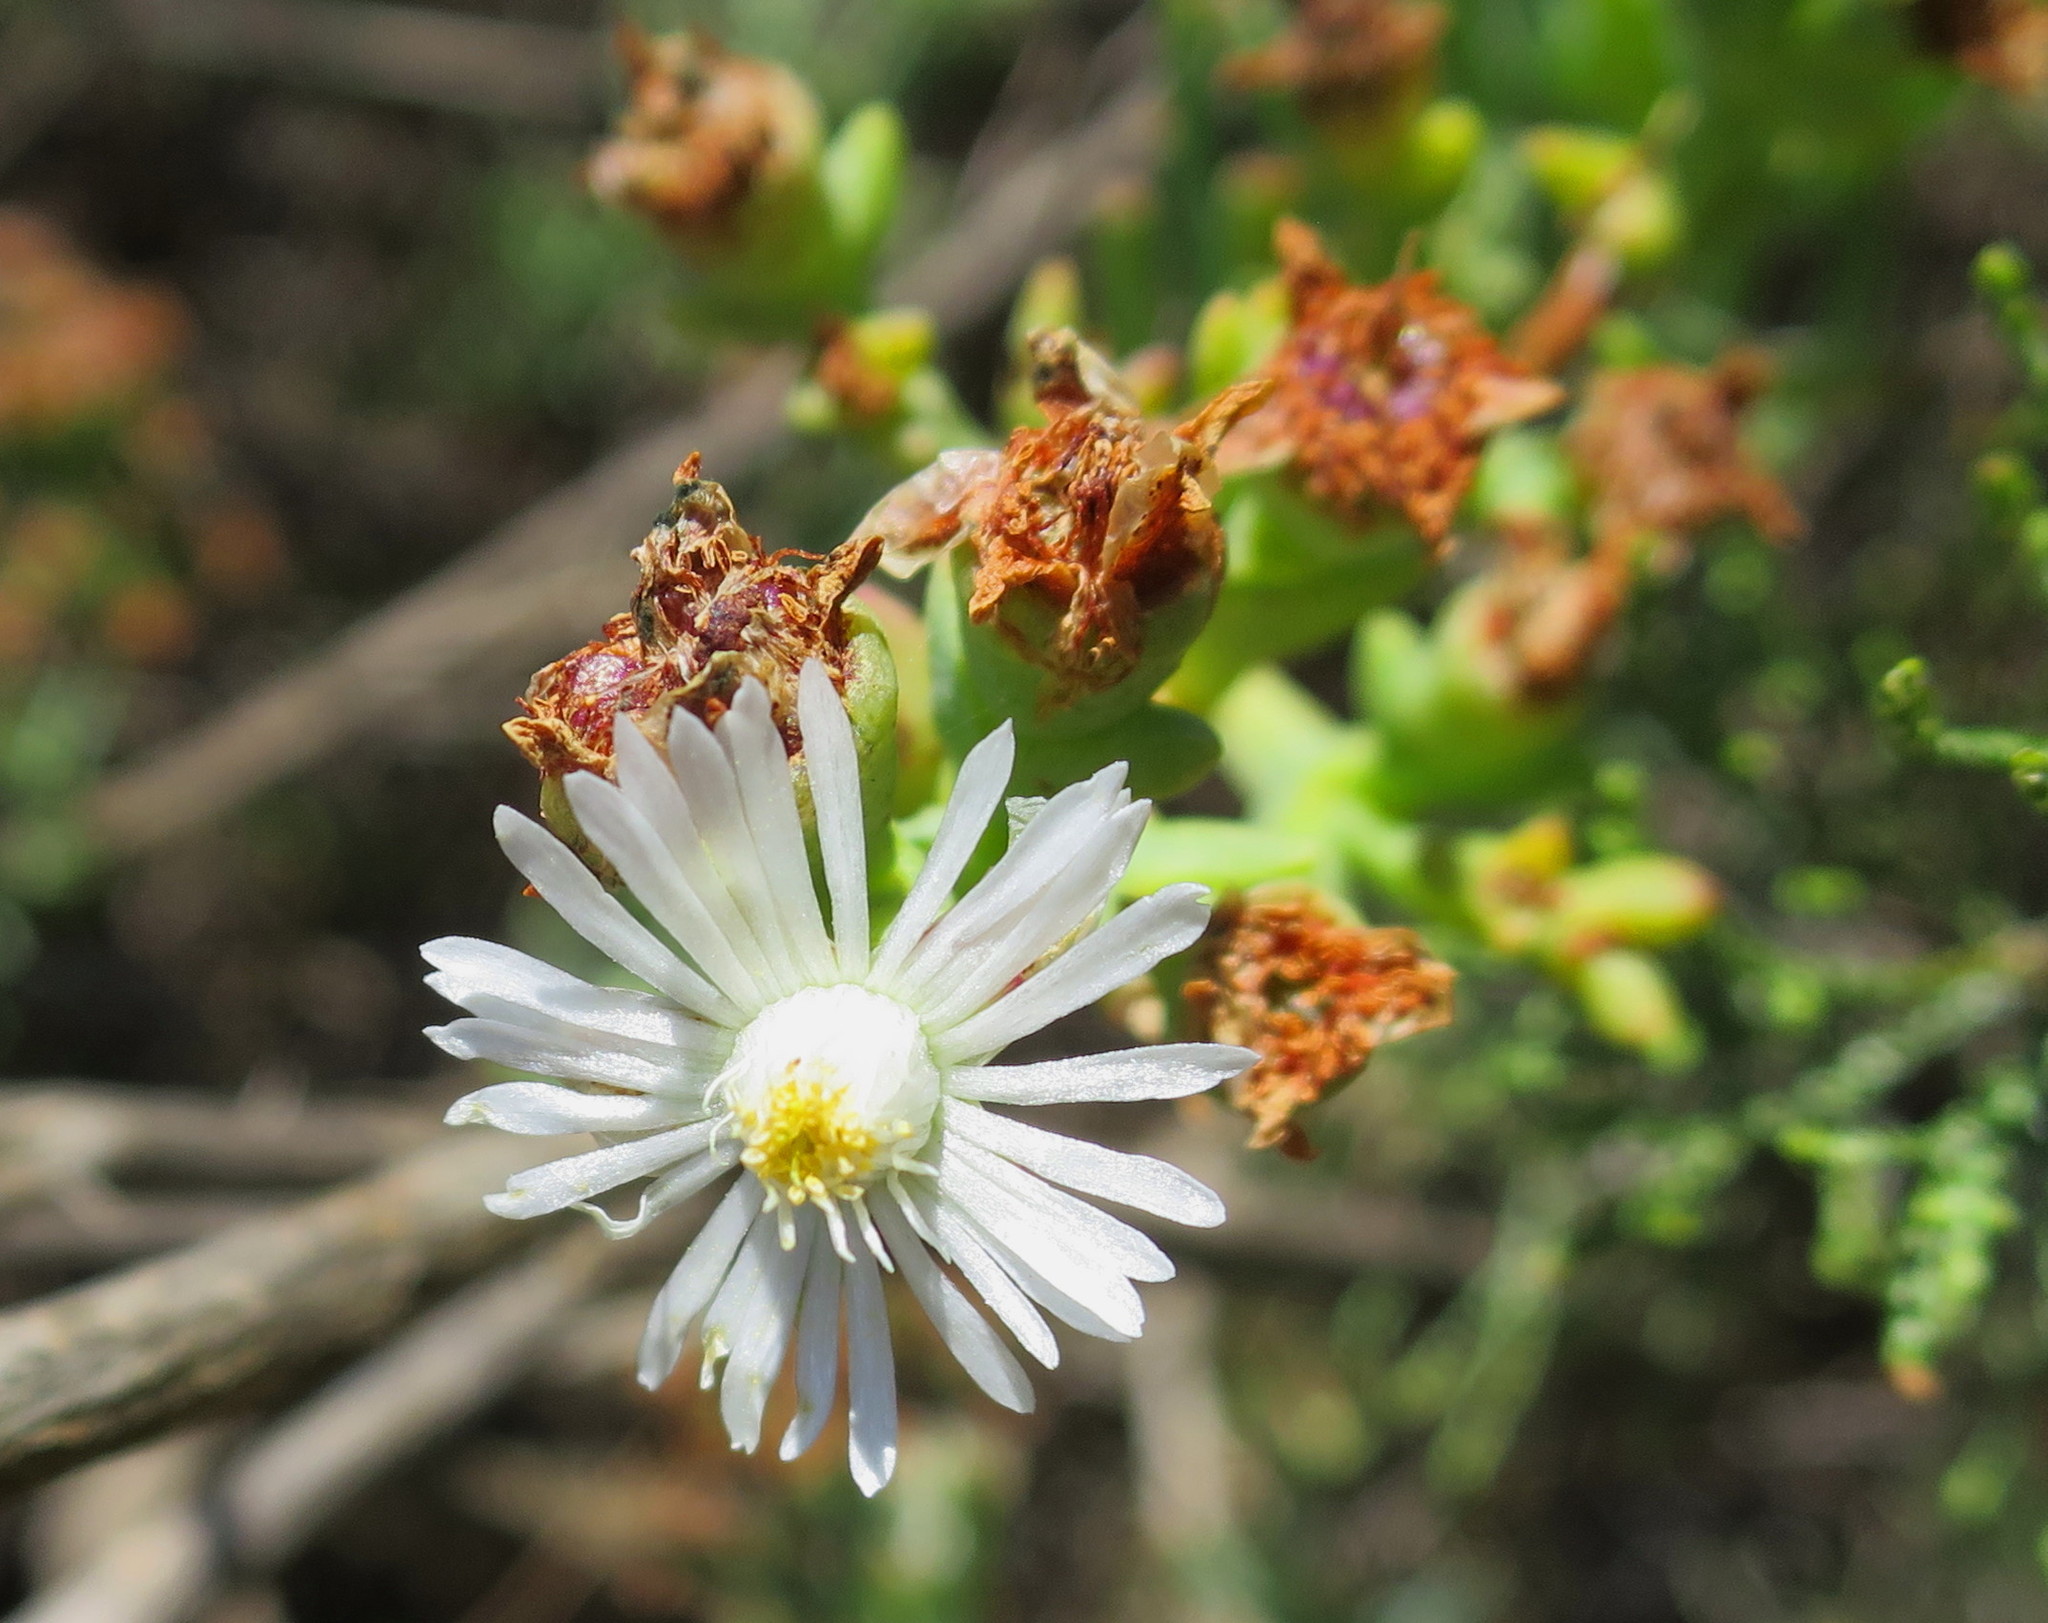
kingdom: Plantae
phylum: Tracheophyta
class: Magnoliopsida
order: Caryophyllales
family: Aizoaceae
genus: Ruschia
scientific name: Ruschia tenella
